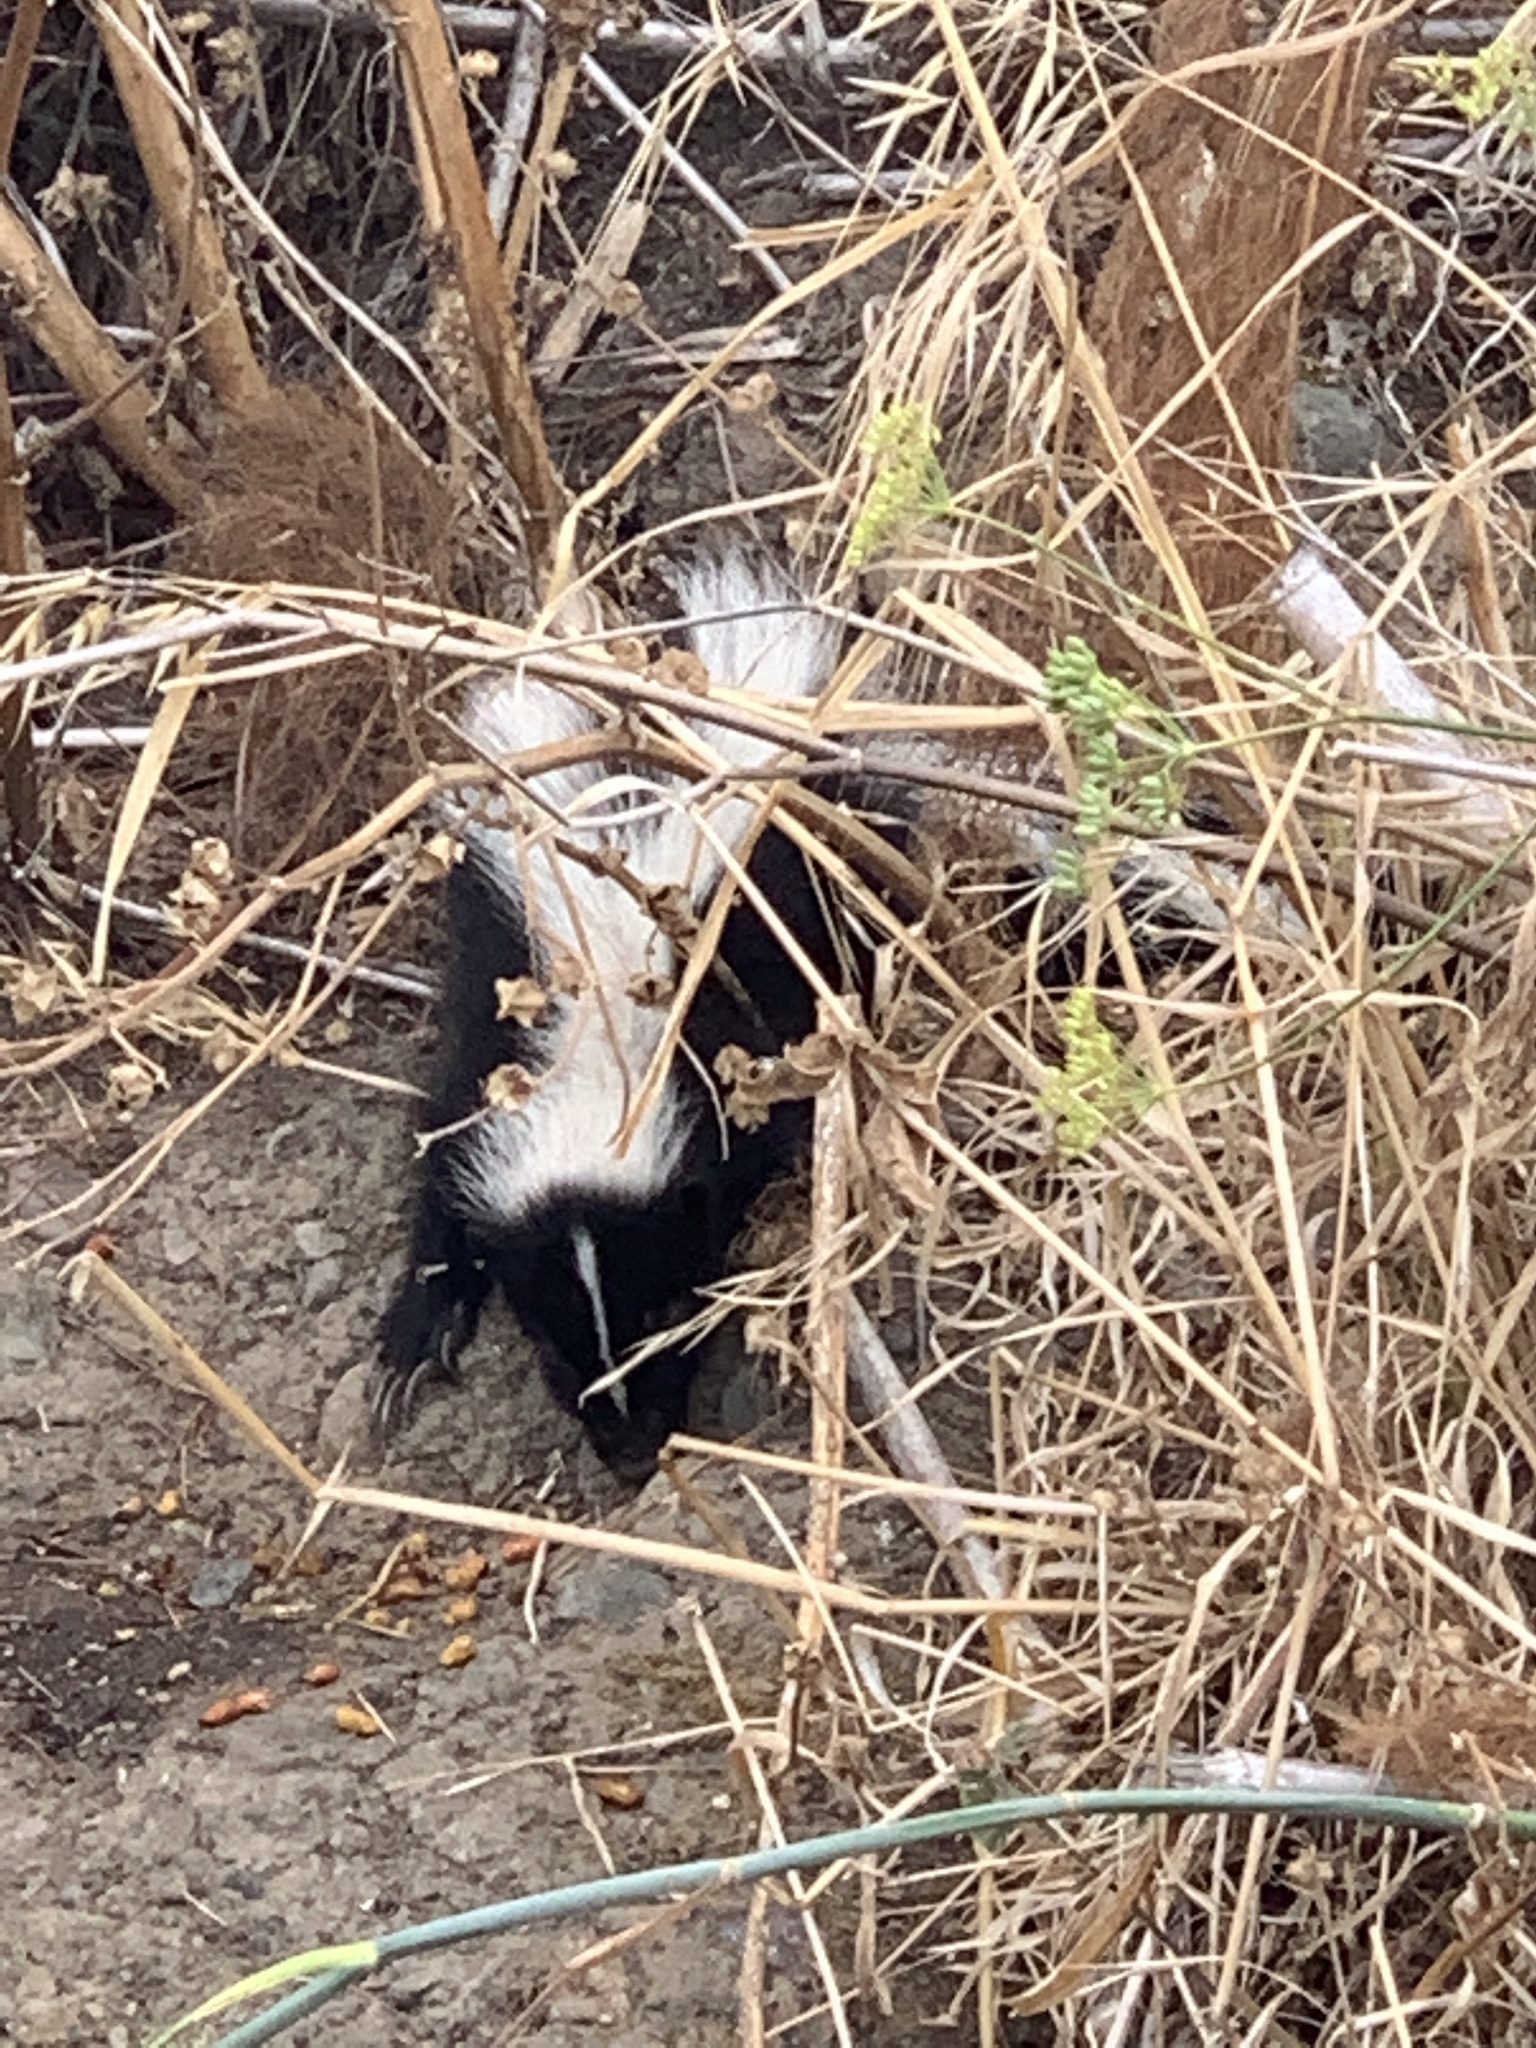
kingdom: Animalia
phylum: Chordata
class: Mammalia
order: Carnivora
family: Mephitidae
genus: Mephitis
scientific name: Mephitis mephitis
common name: Striped skunk
